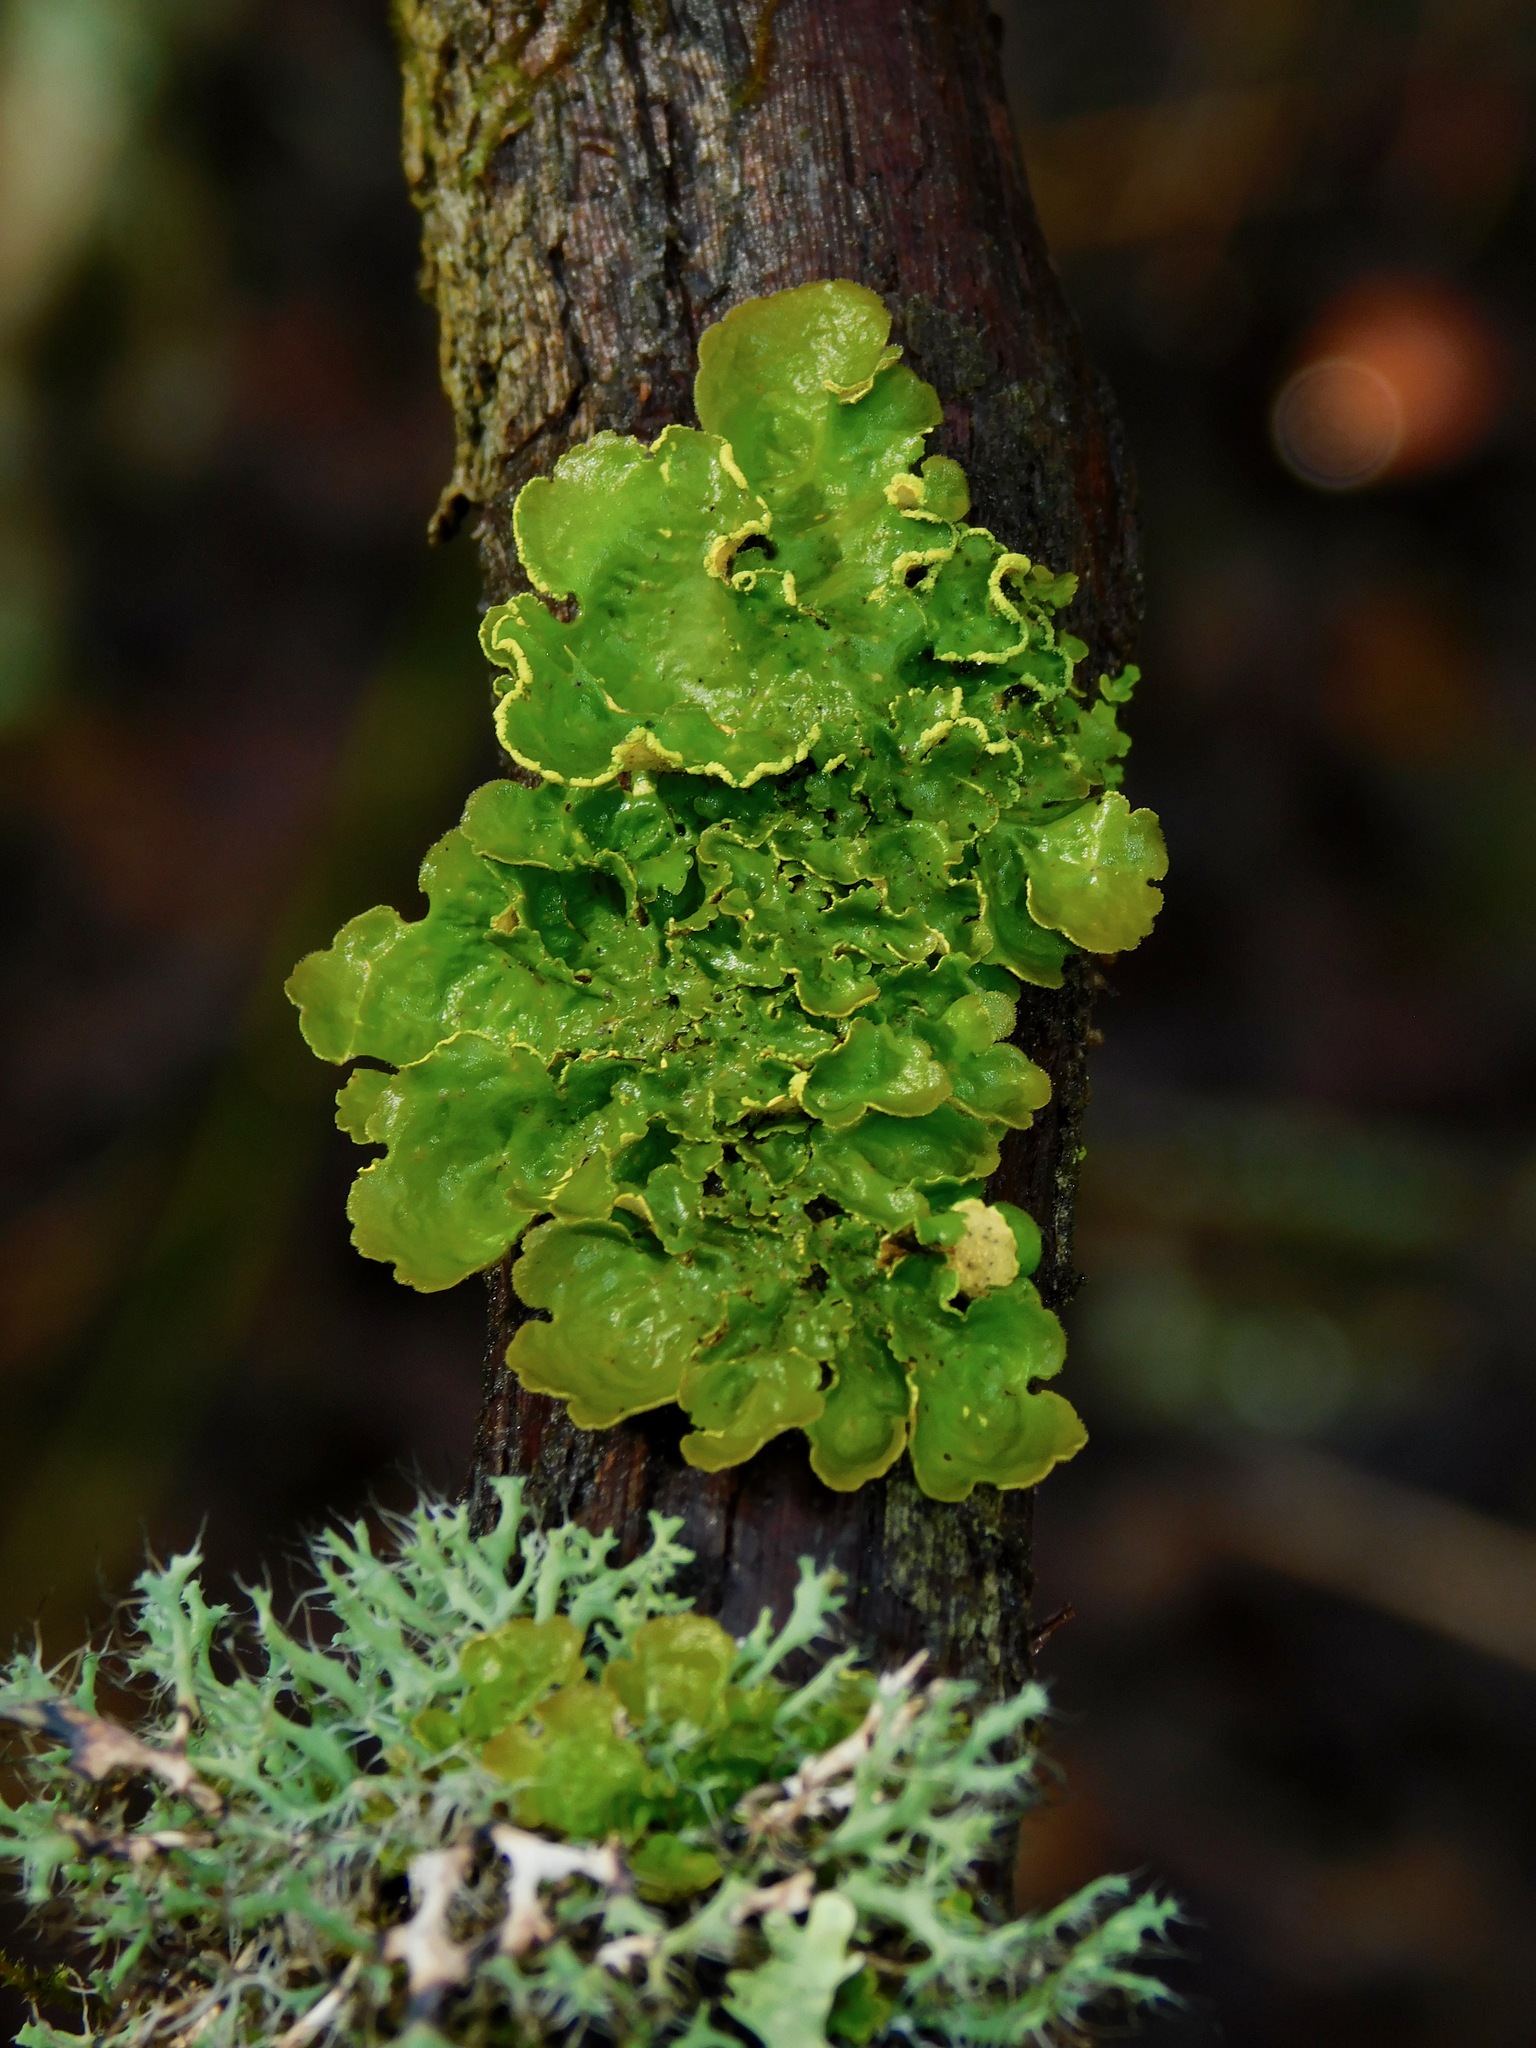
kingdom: Fungi
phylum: Ascomycota
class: Lecanoromycetes
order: Peltigerales
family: Lobariaceae
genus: Pseudocyphellaria
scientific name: Pseudocyphellaria aurata
